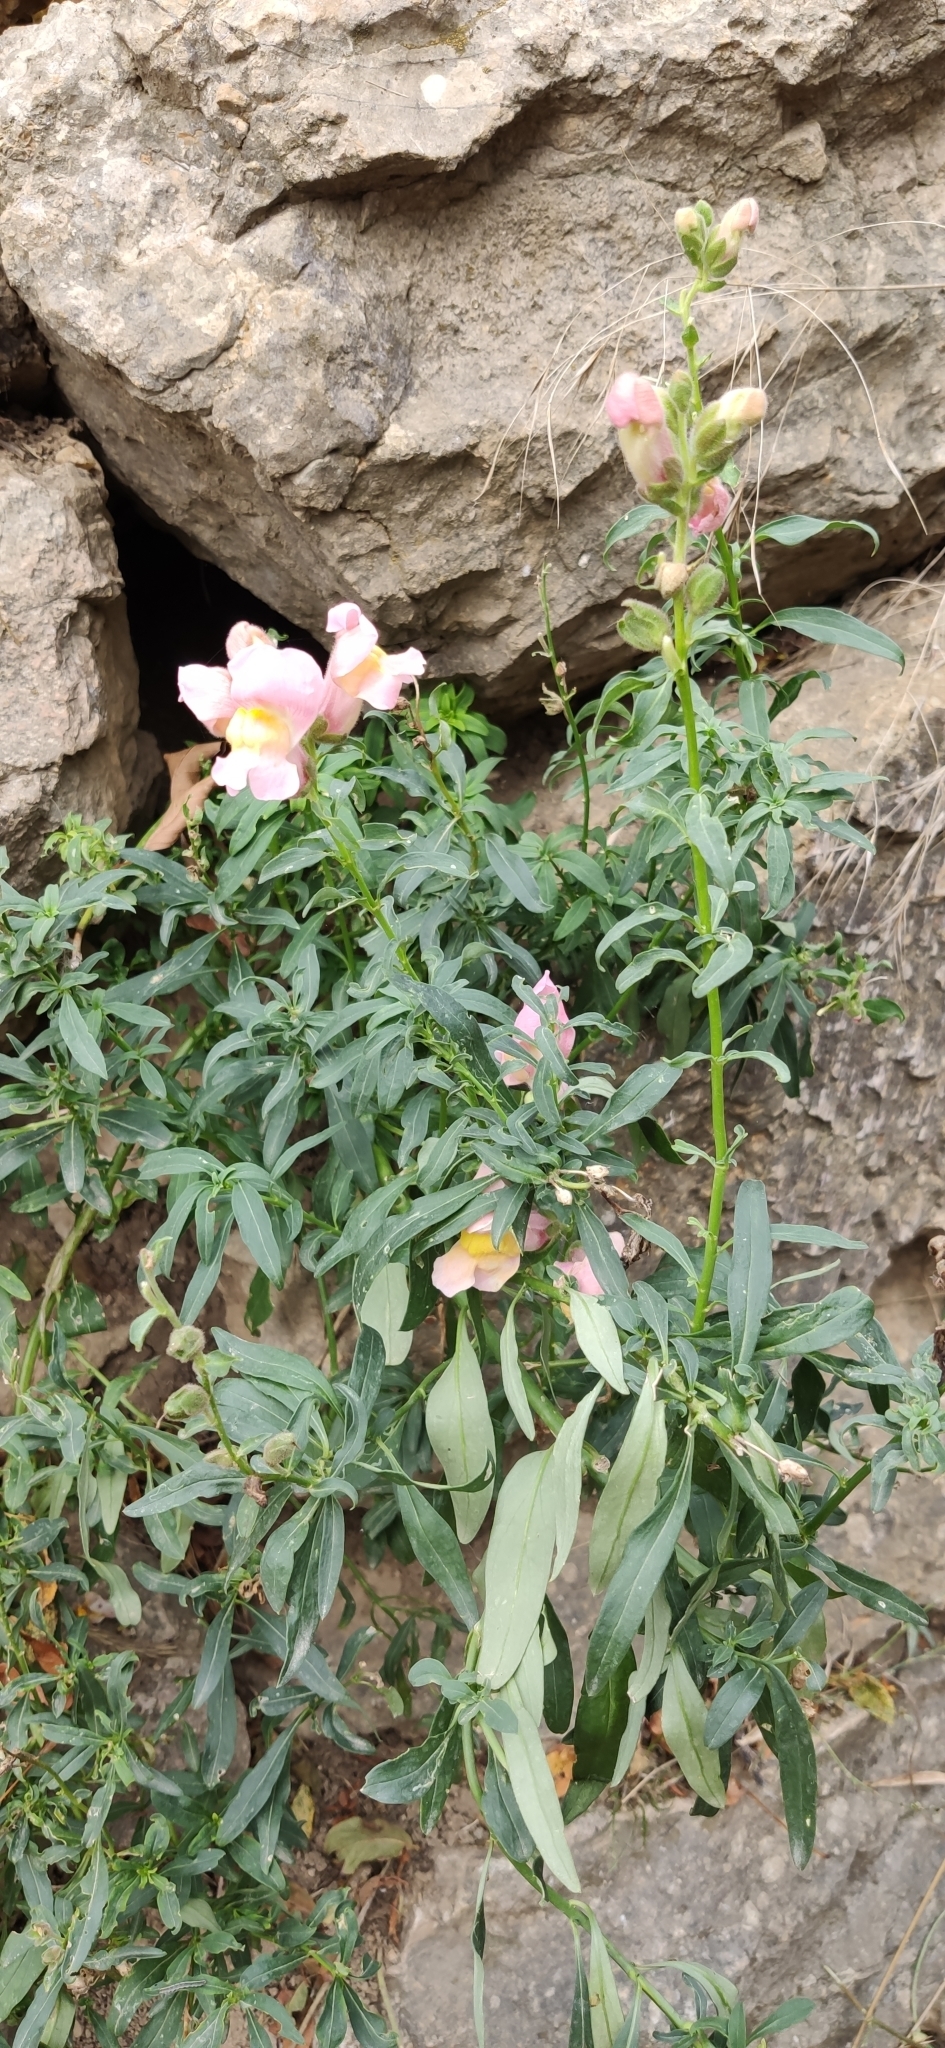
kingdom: Plantae
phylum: Tracheophyta
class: Magnoliopsida
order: Lamiales
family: Plantaginaceae
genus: Antirrhinum
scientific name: Antirrhinum majus
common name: Snapdragon
